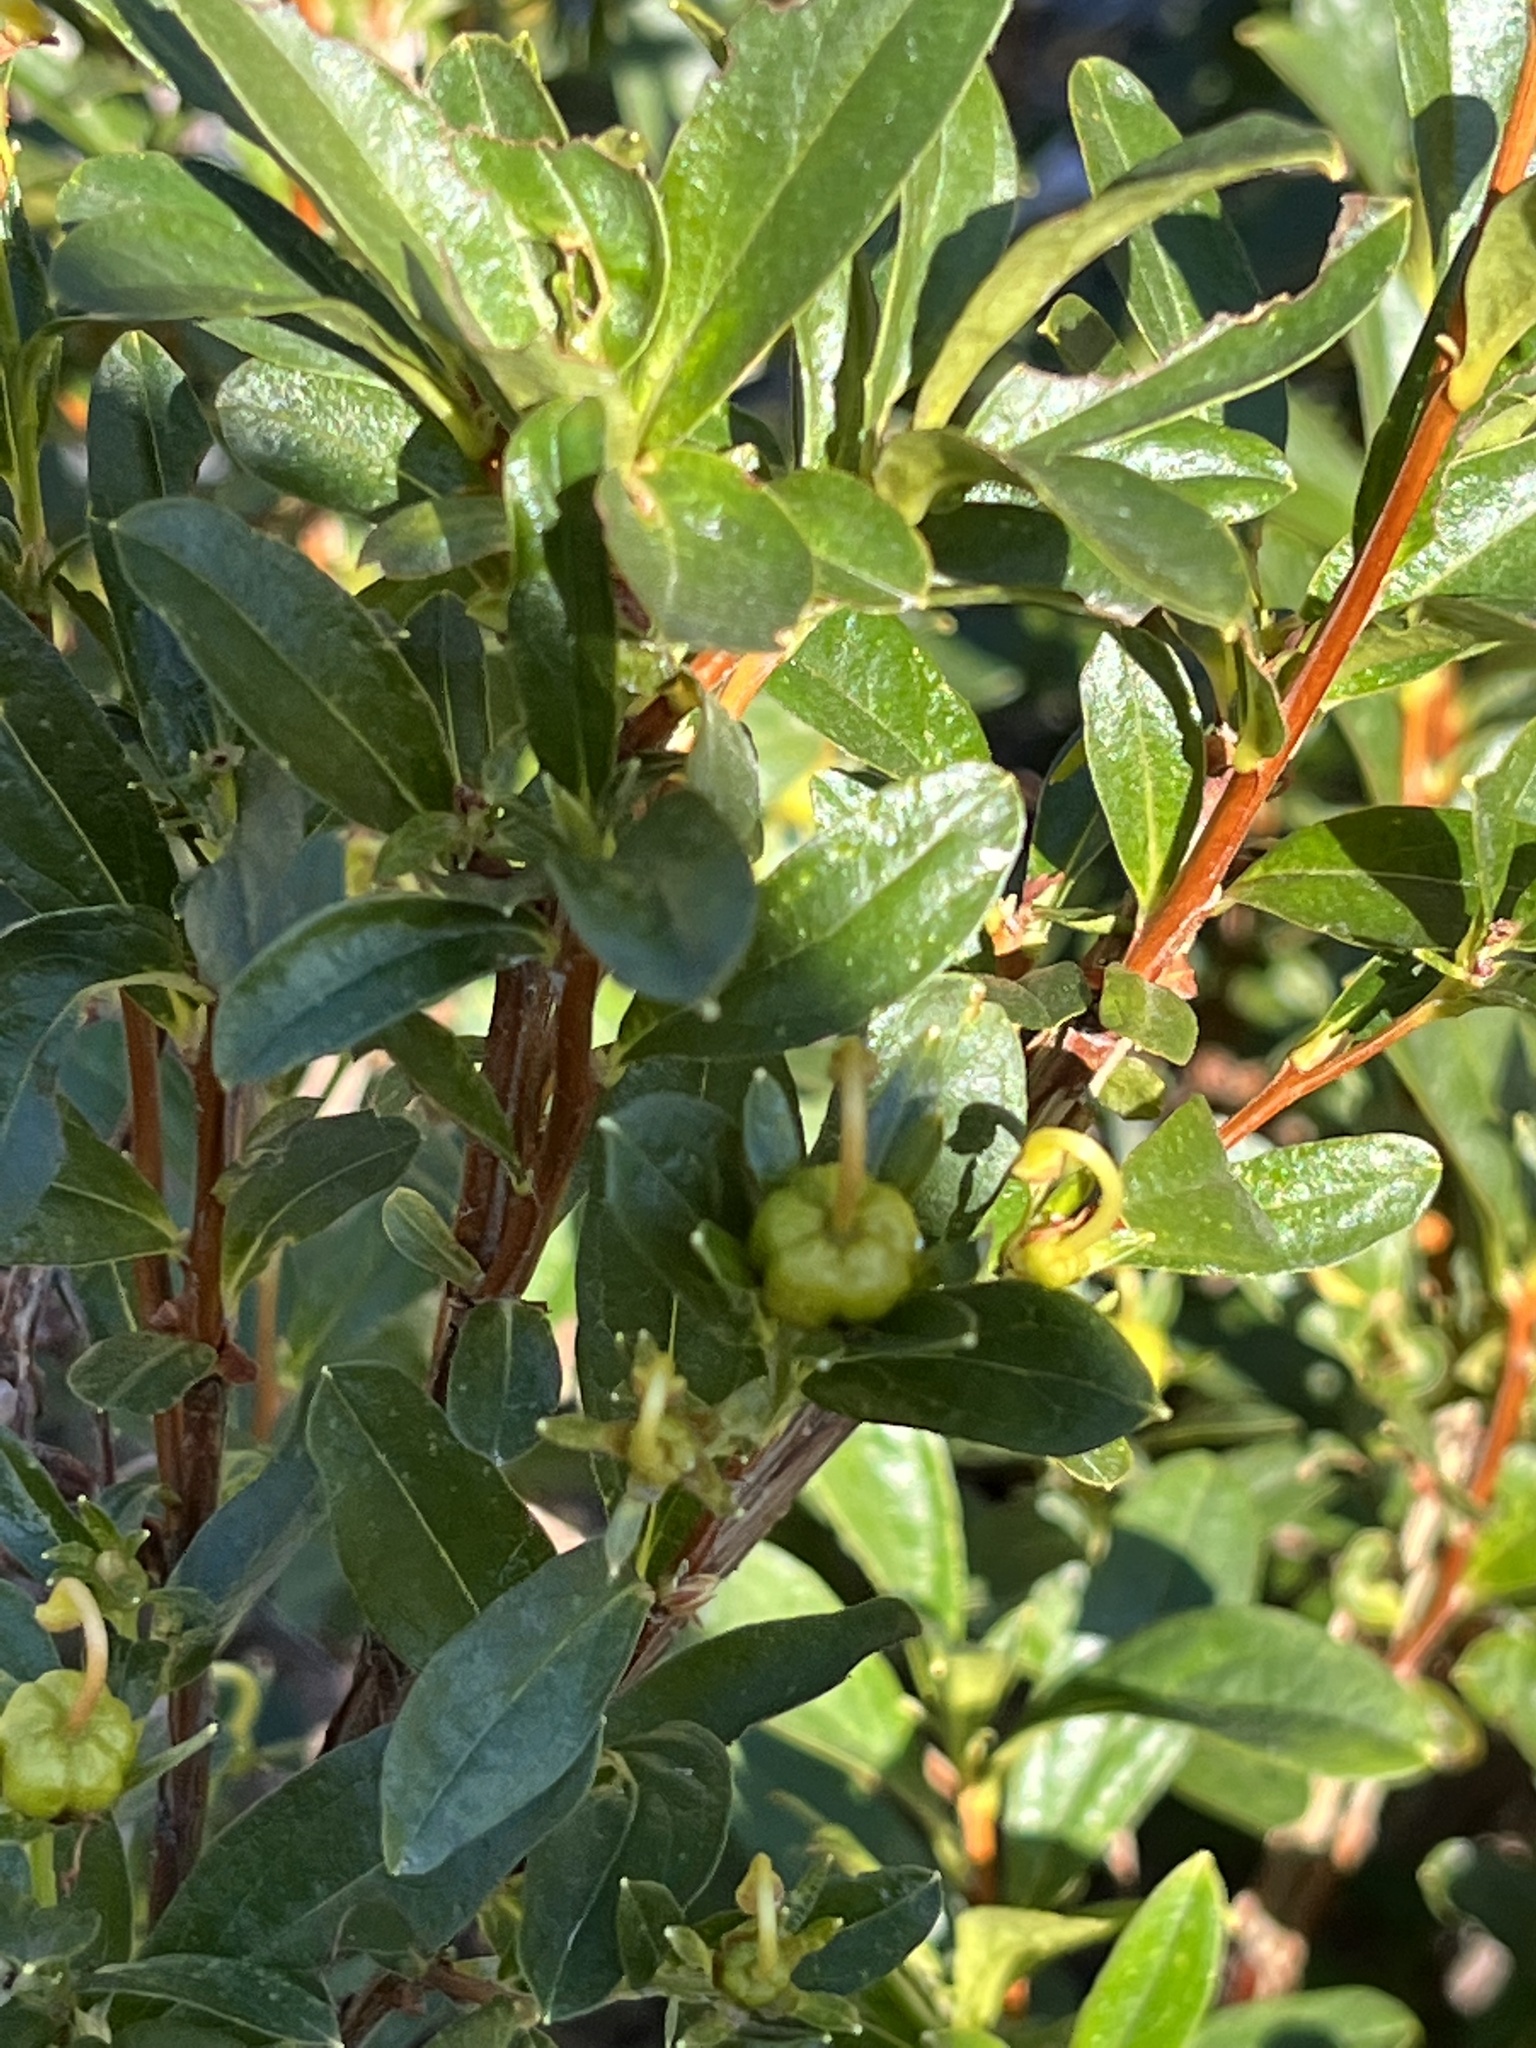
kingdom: Plantae
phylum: Tracheophyta
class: Magnoliopsida
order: Ericales
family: Ericaceae
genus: Elliottia
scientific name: Elliottia pyroliflora
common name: Copperbush
